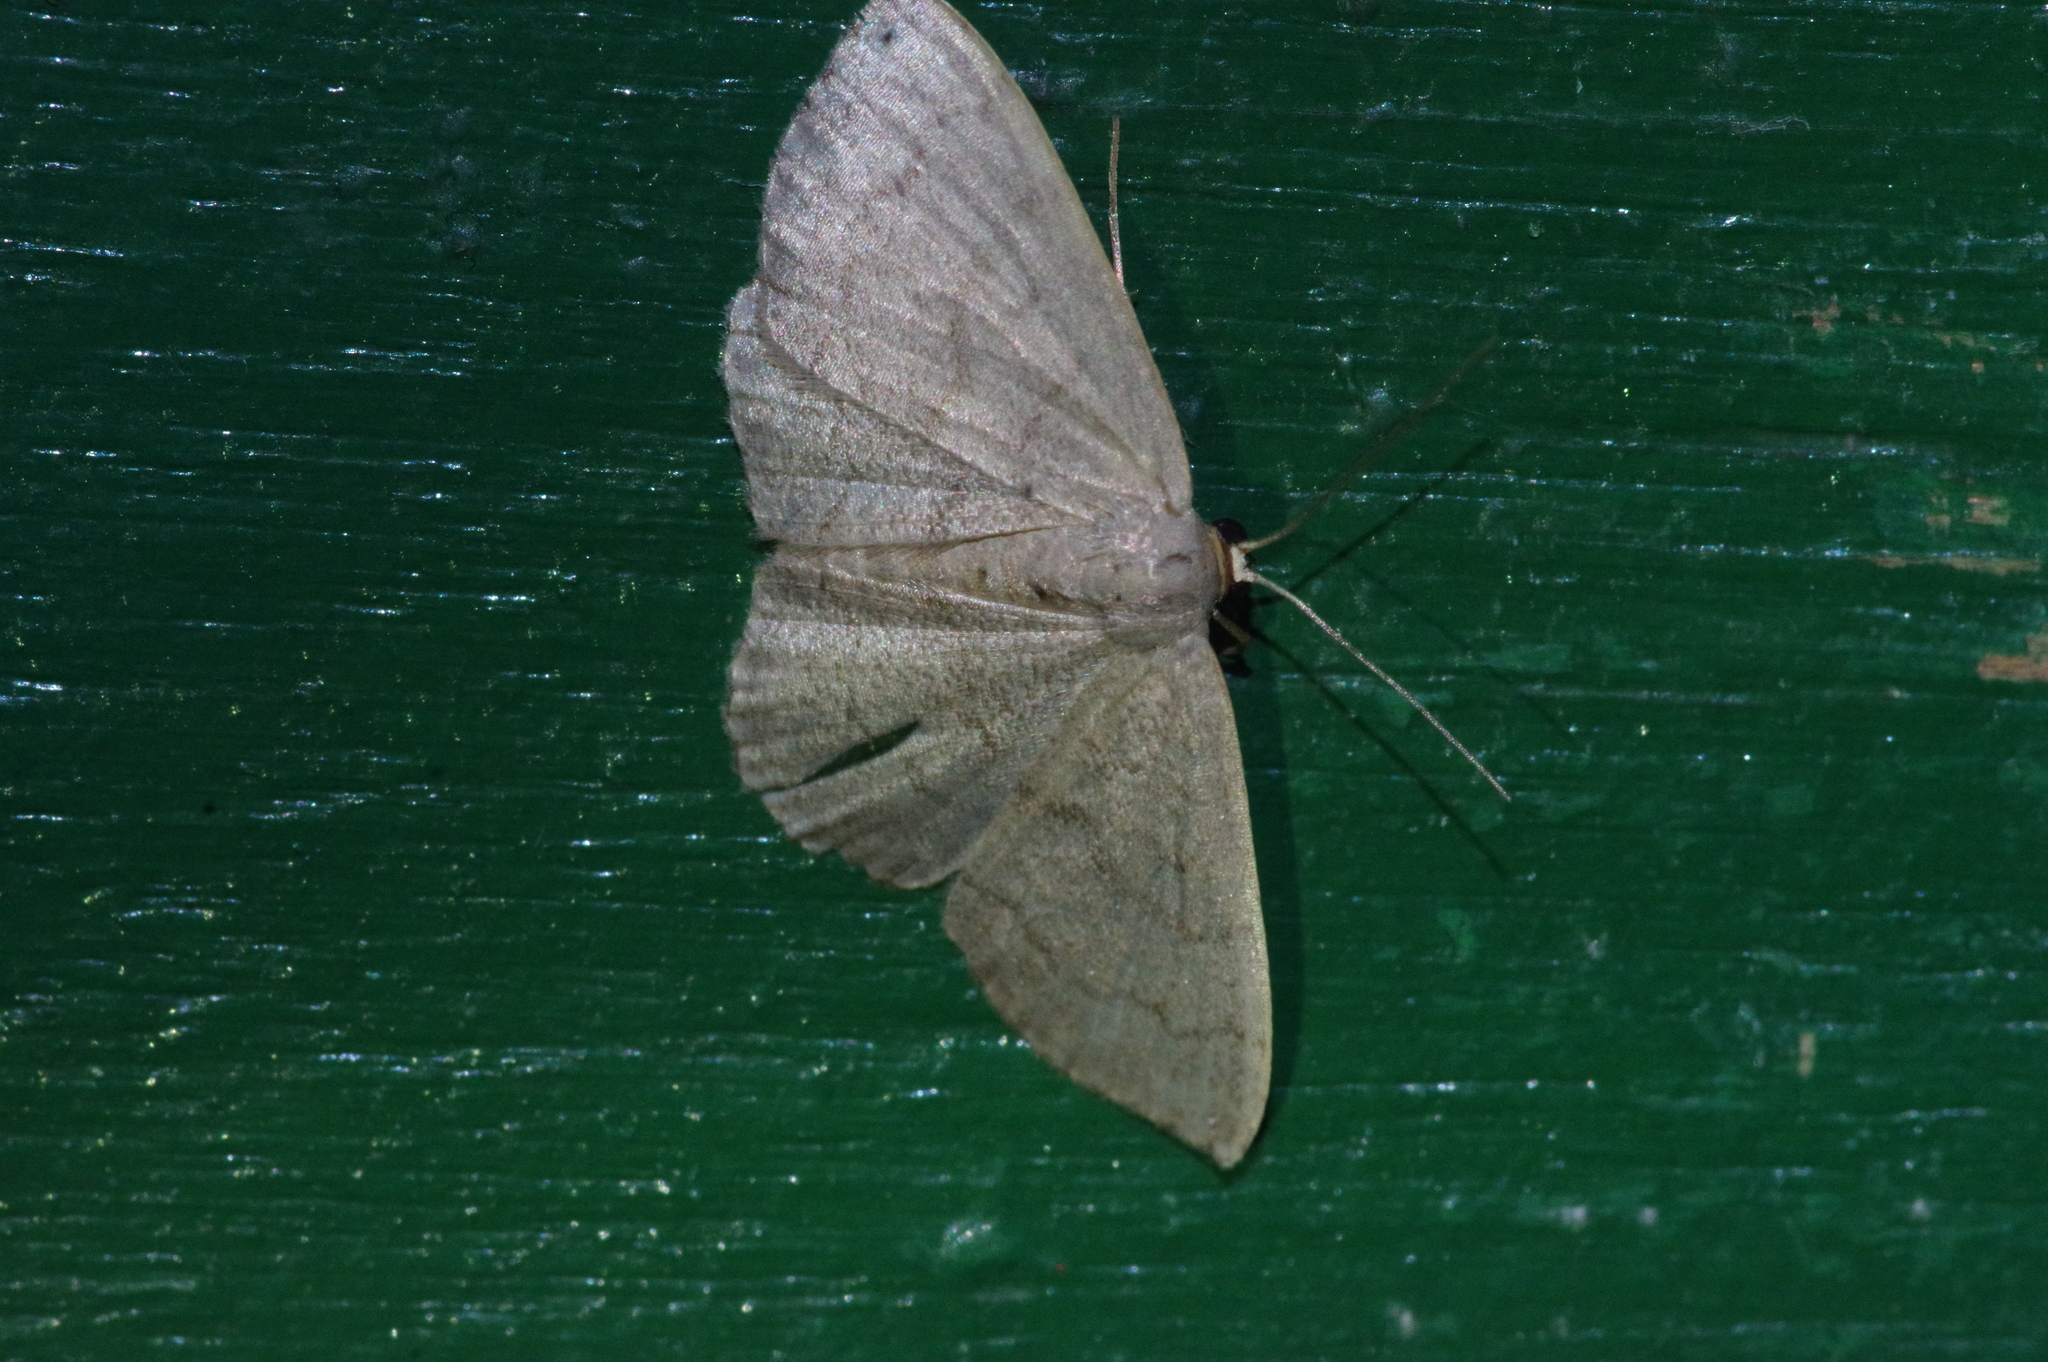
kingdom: Animalia
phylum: Arthropoda
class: Insecta
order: Lepidoptera
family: Geometridae
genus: Scopula
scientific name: Scopula plumbearia
